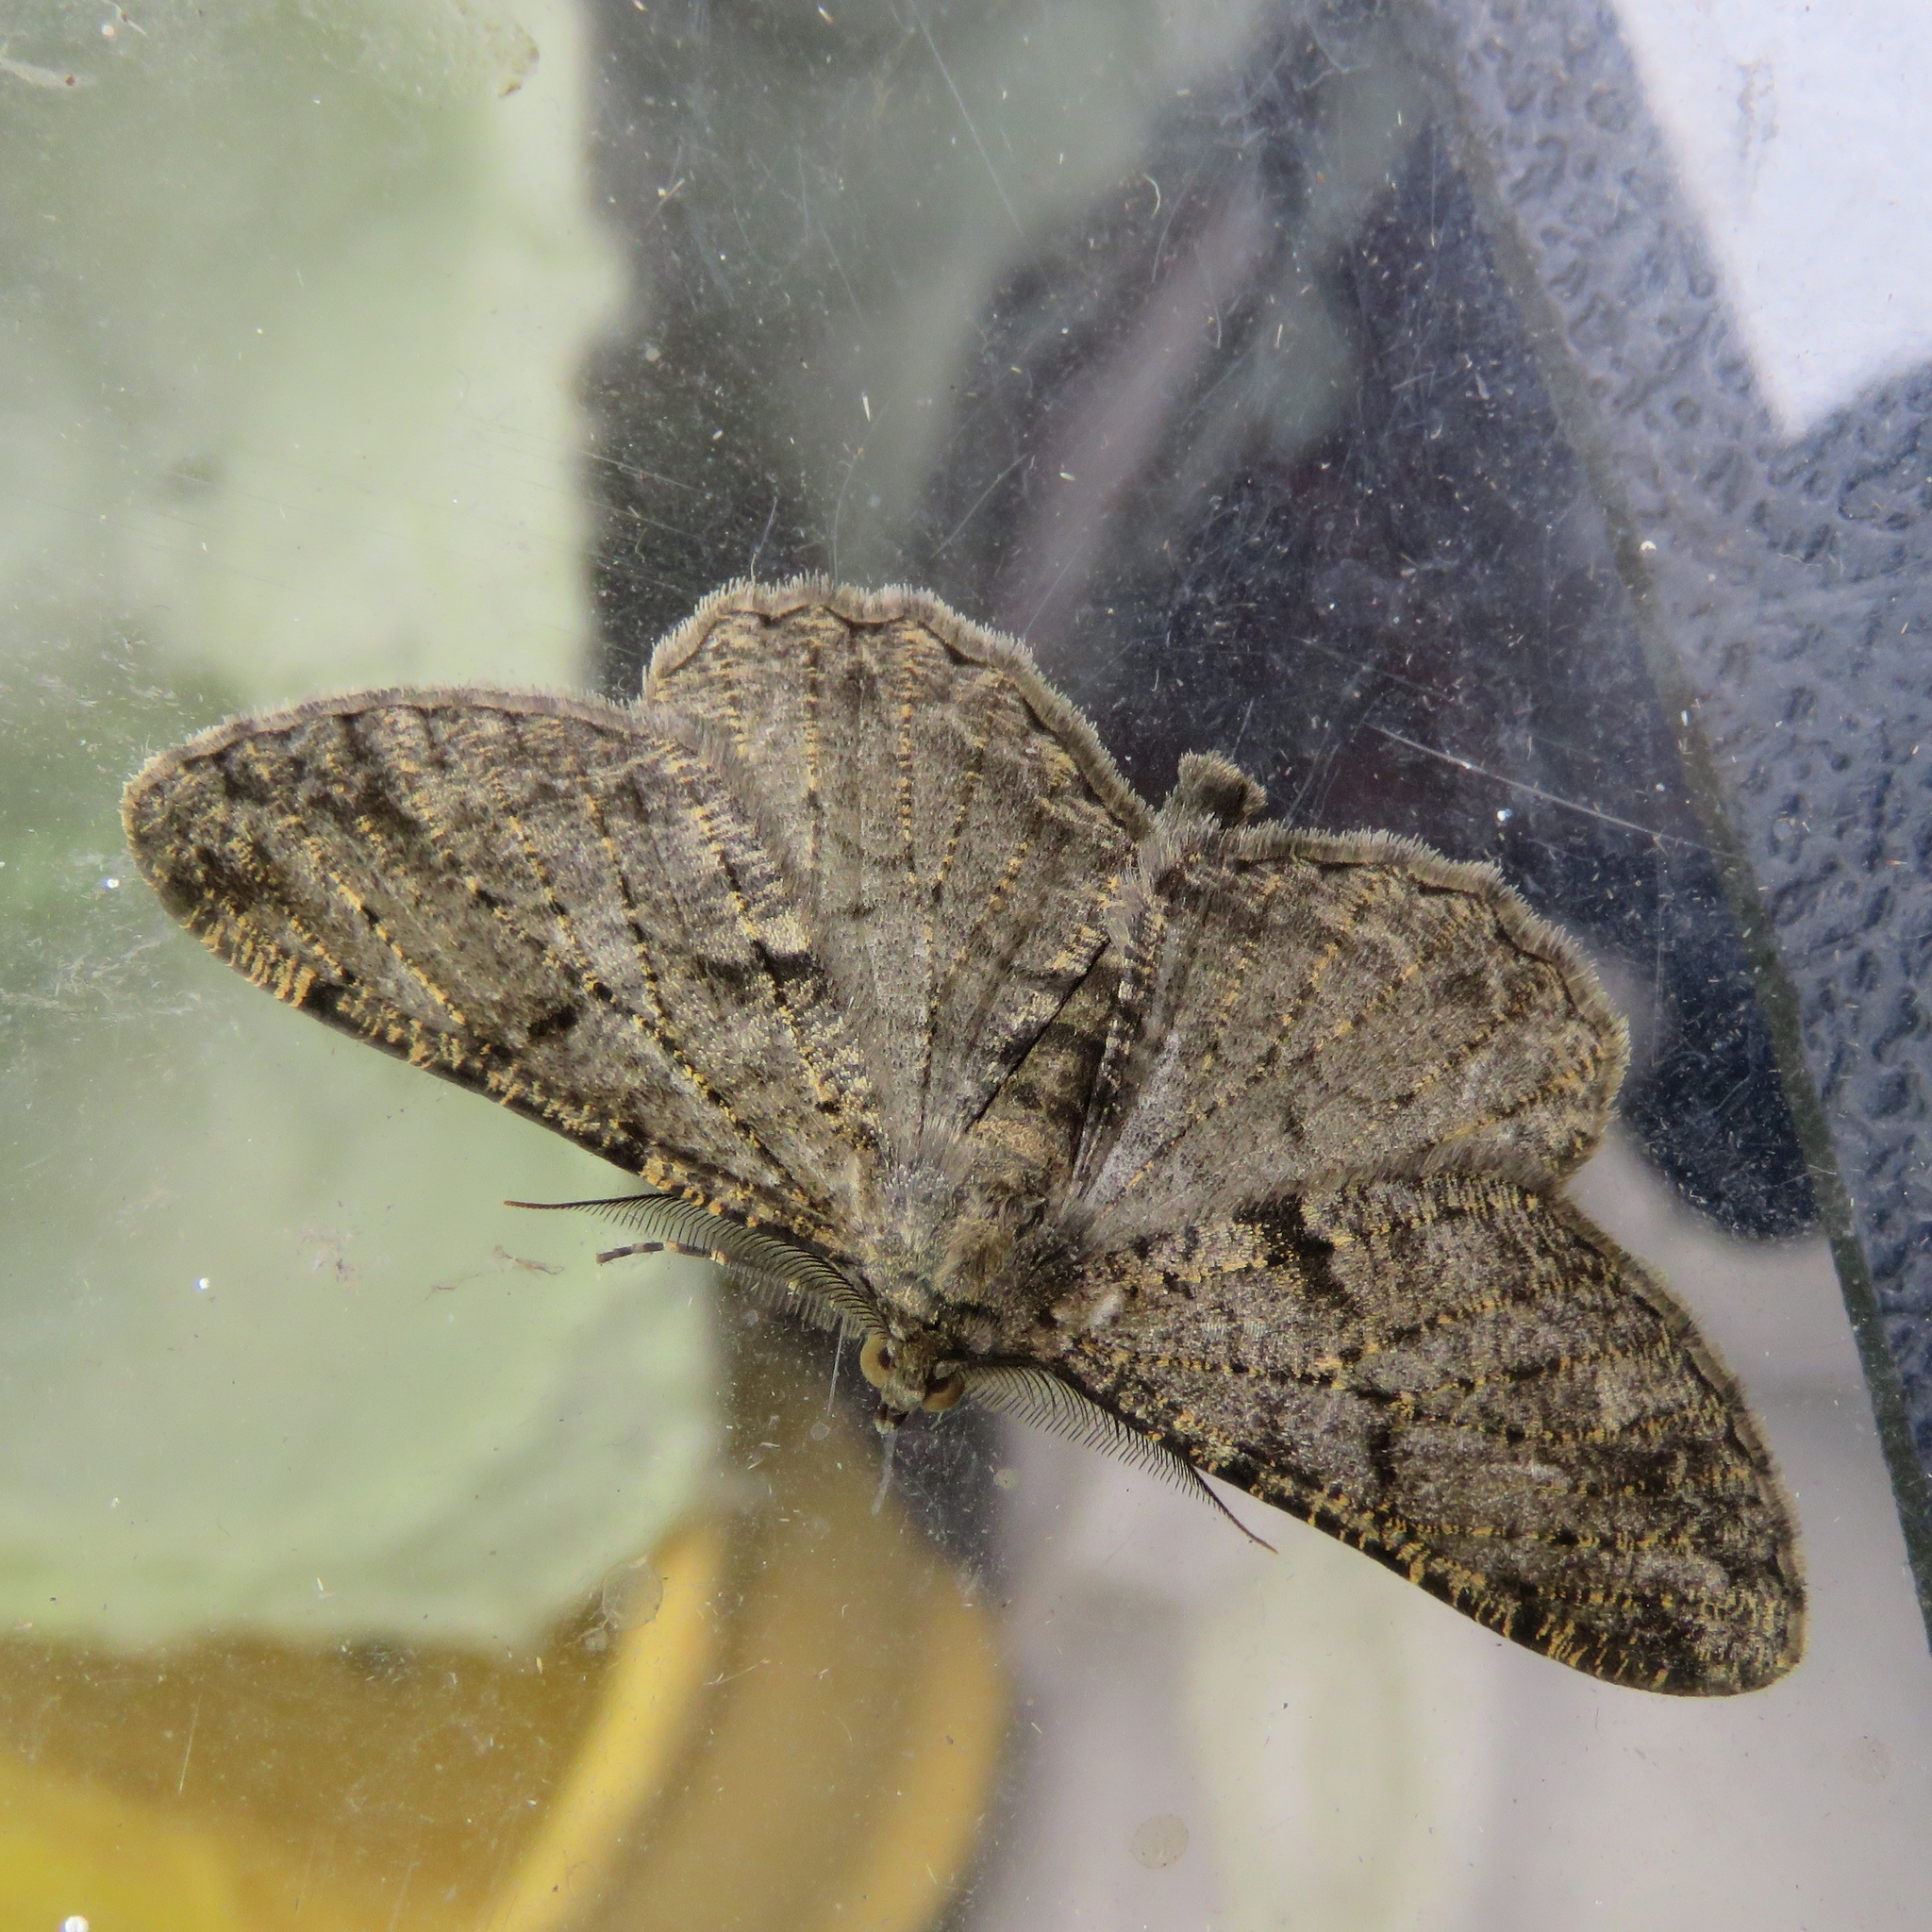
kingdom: Animalia
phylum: Arthropoda
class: Insecta
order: Lepidoptera
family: Geometridae
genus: Peribatodes
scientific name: Peribatodes rhomboidaria
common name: Willow beauty
